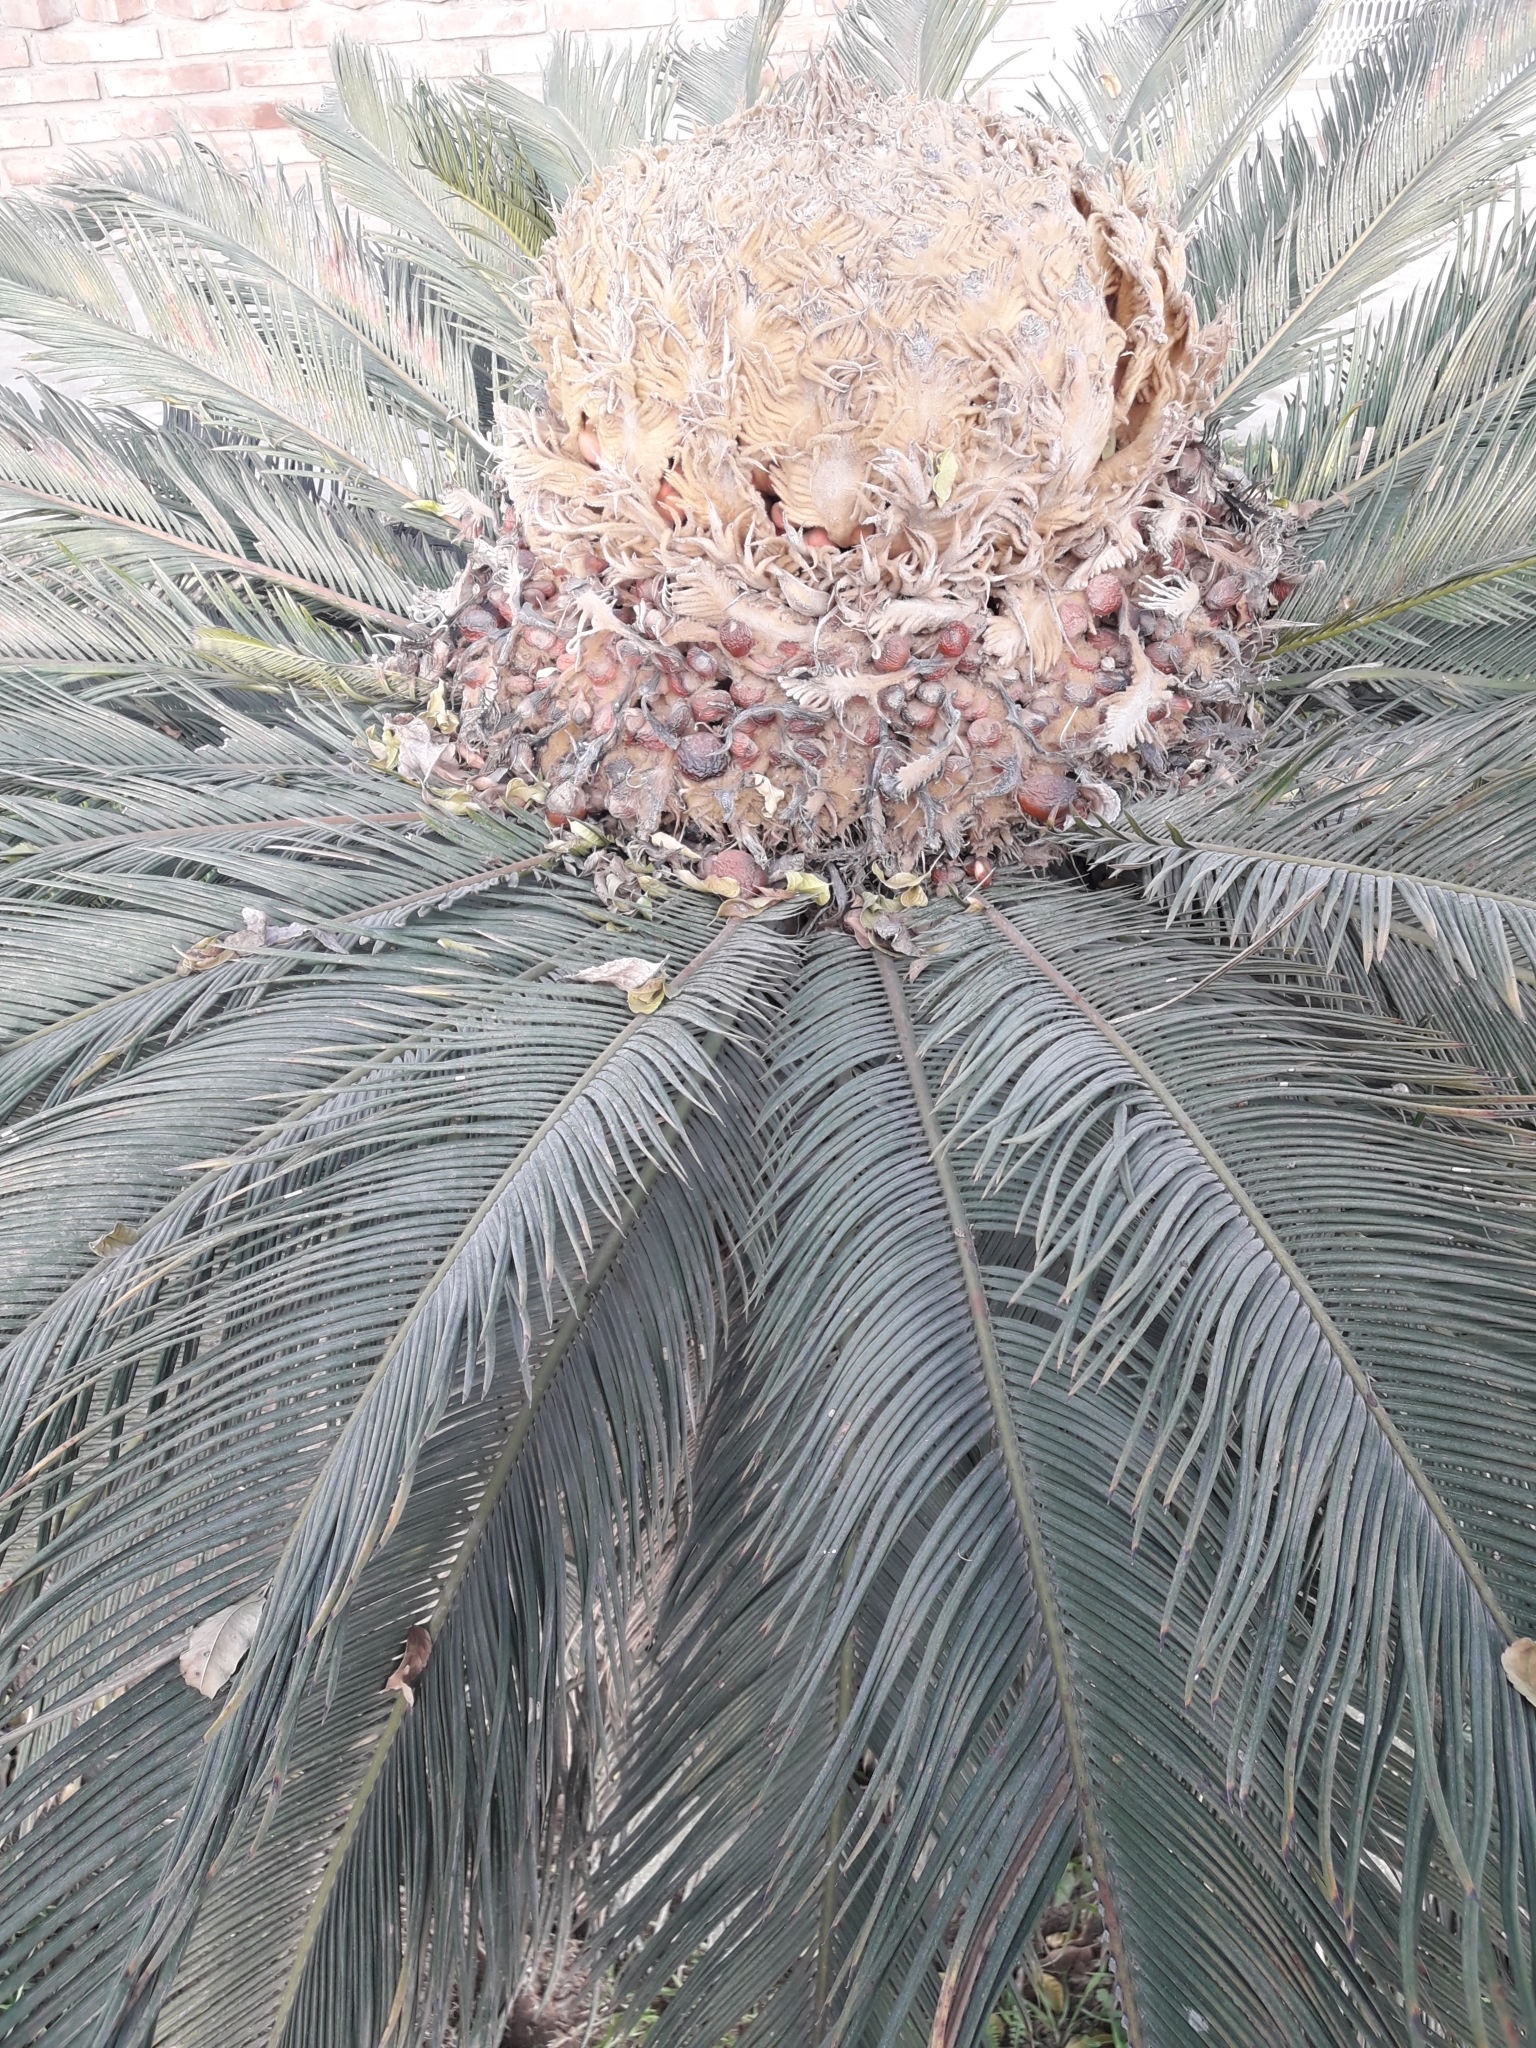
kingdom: Plantae
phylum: Tracheophyta
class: Cycadopsida
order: Cycadales
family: Cycadaceae
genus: Cycas
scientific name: Cycas revoluta
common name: Sago palm
